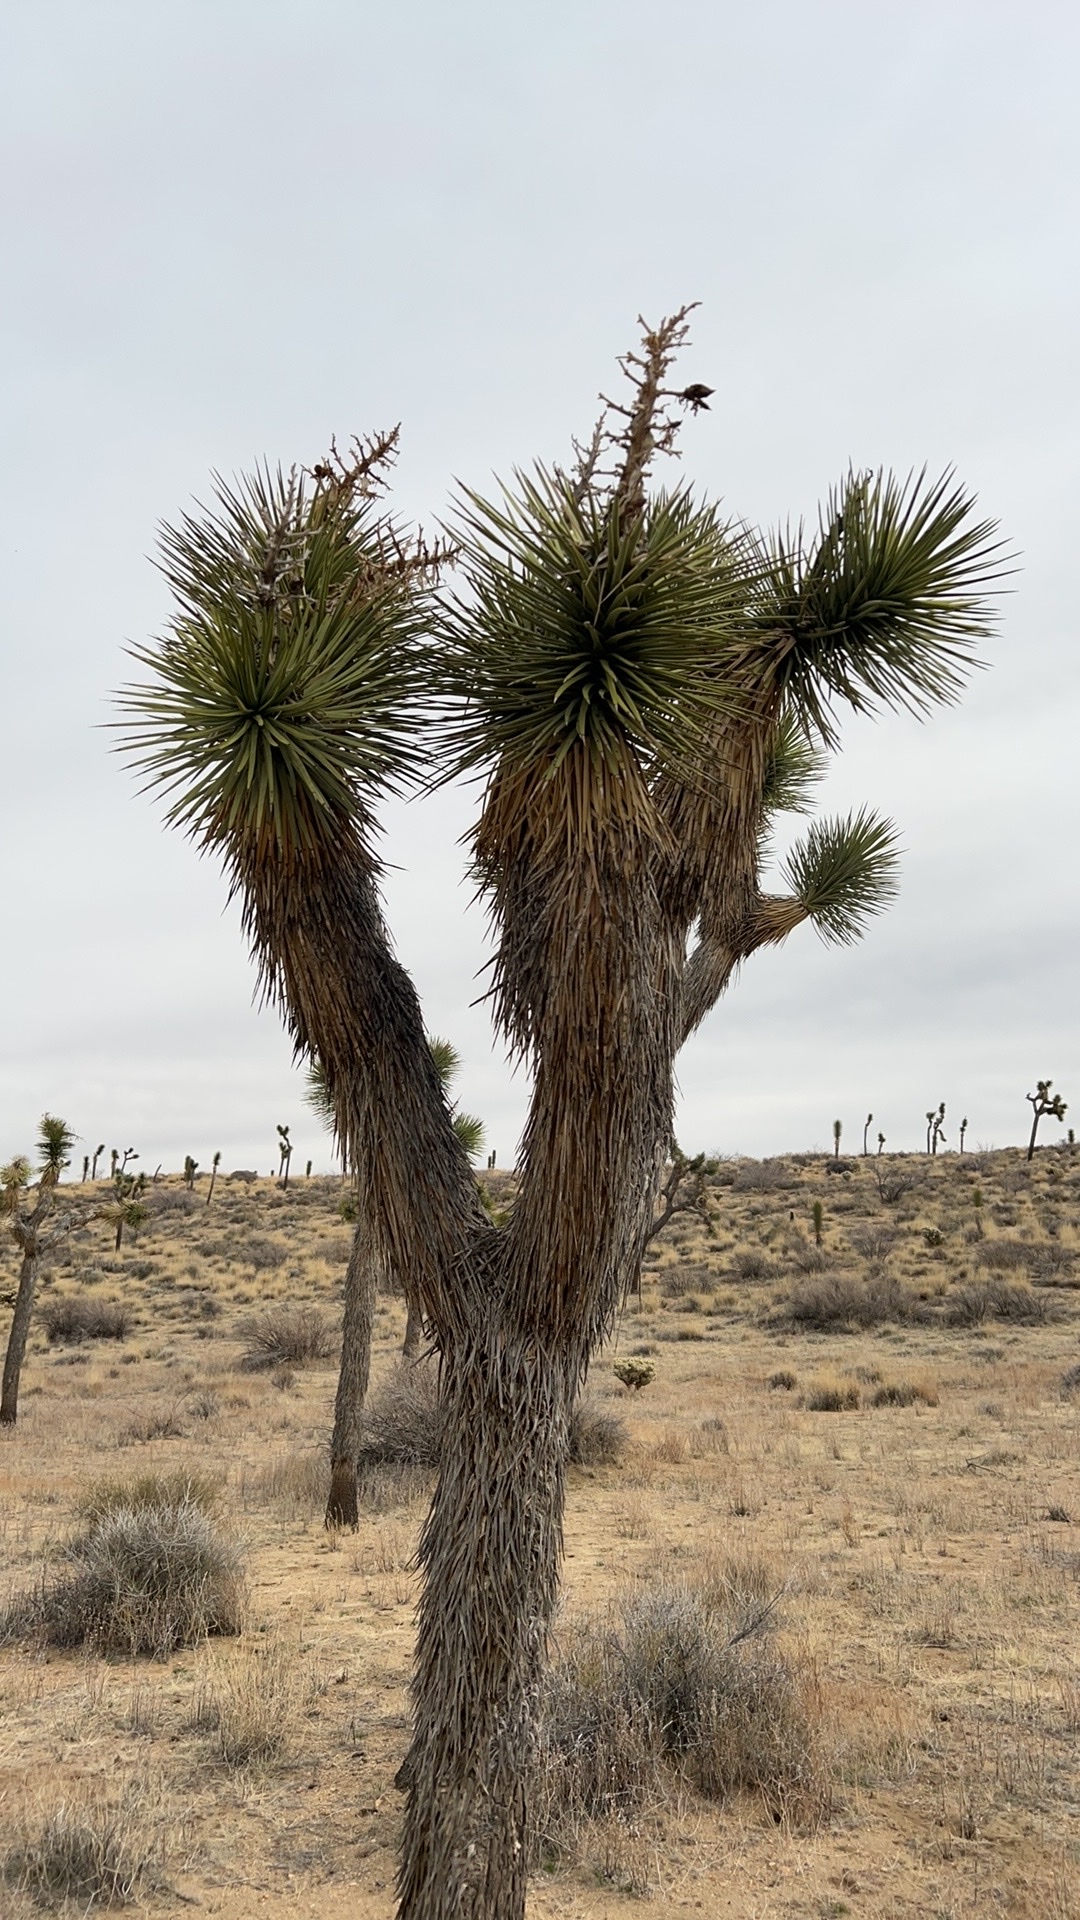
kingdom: Plantae
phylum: Tracheophyta
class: Liliopsida
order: Asparagales
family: Asparagaceae
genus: Yucca
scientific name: Yucca brevifolia
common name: Joshua tree
